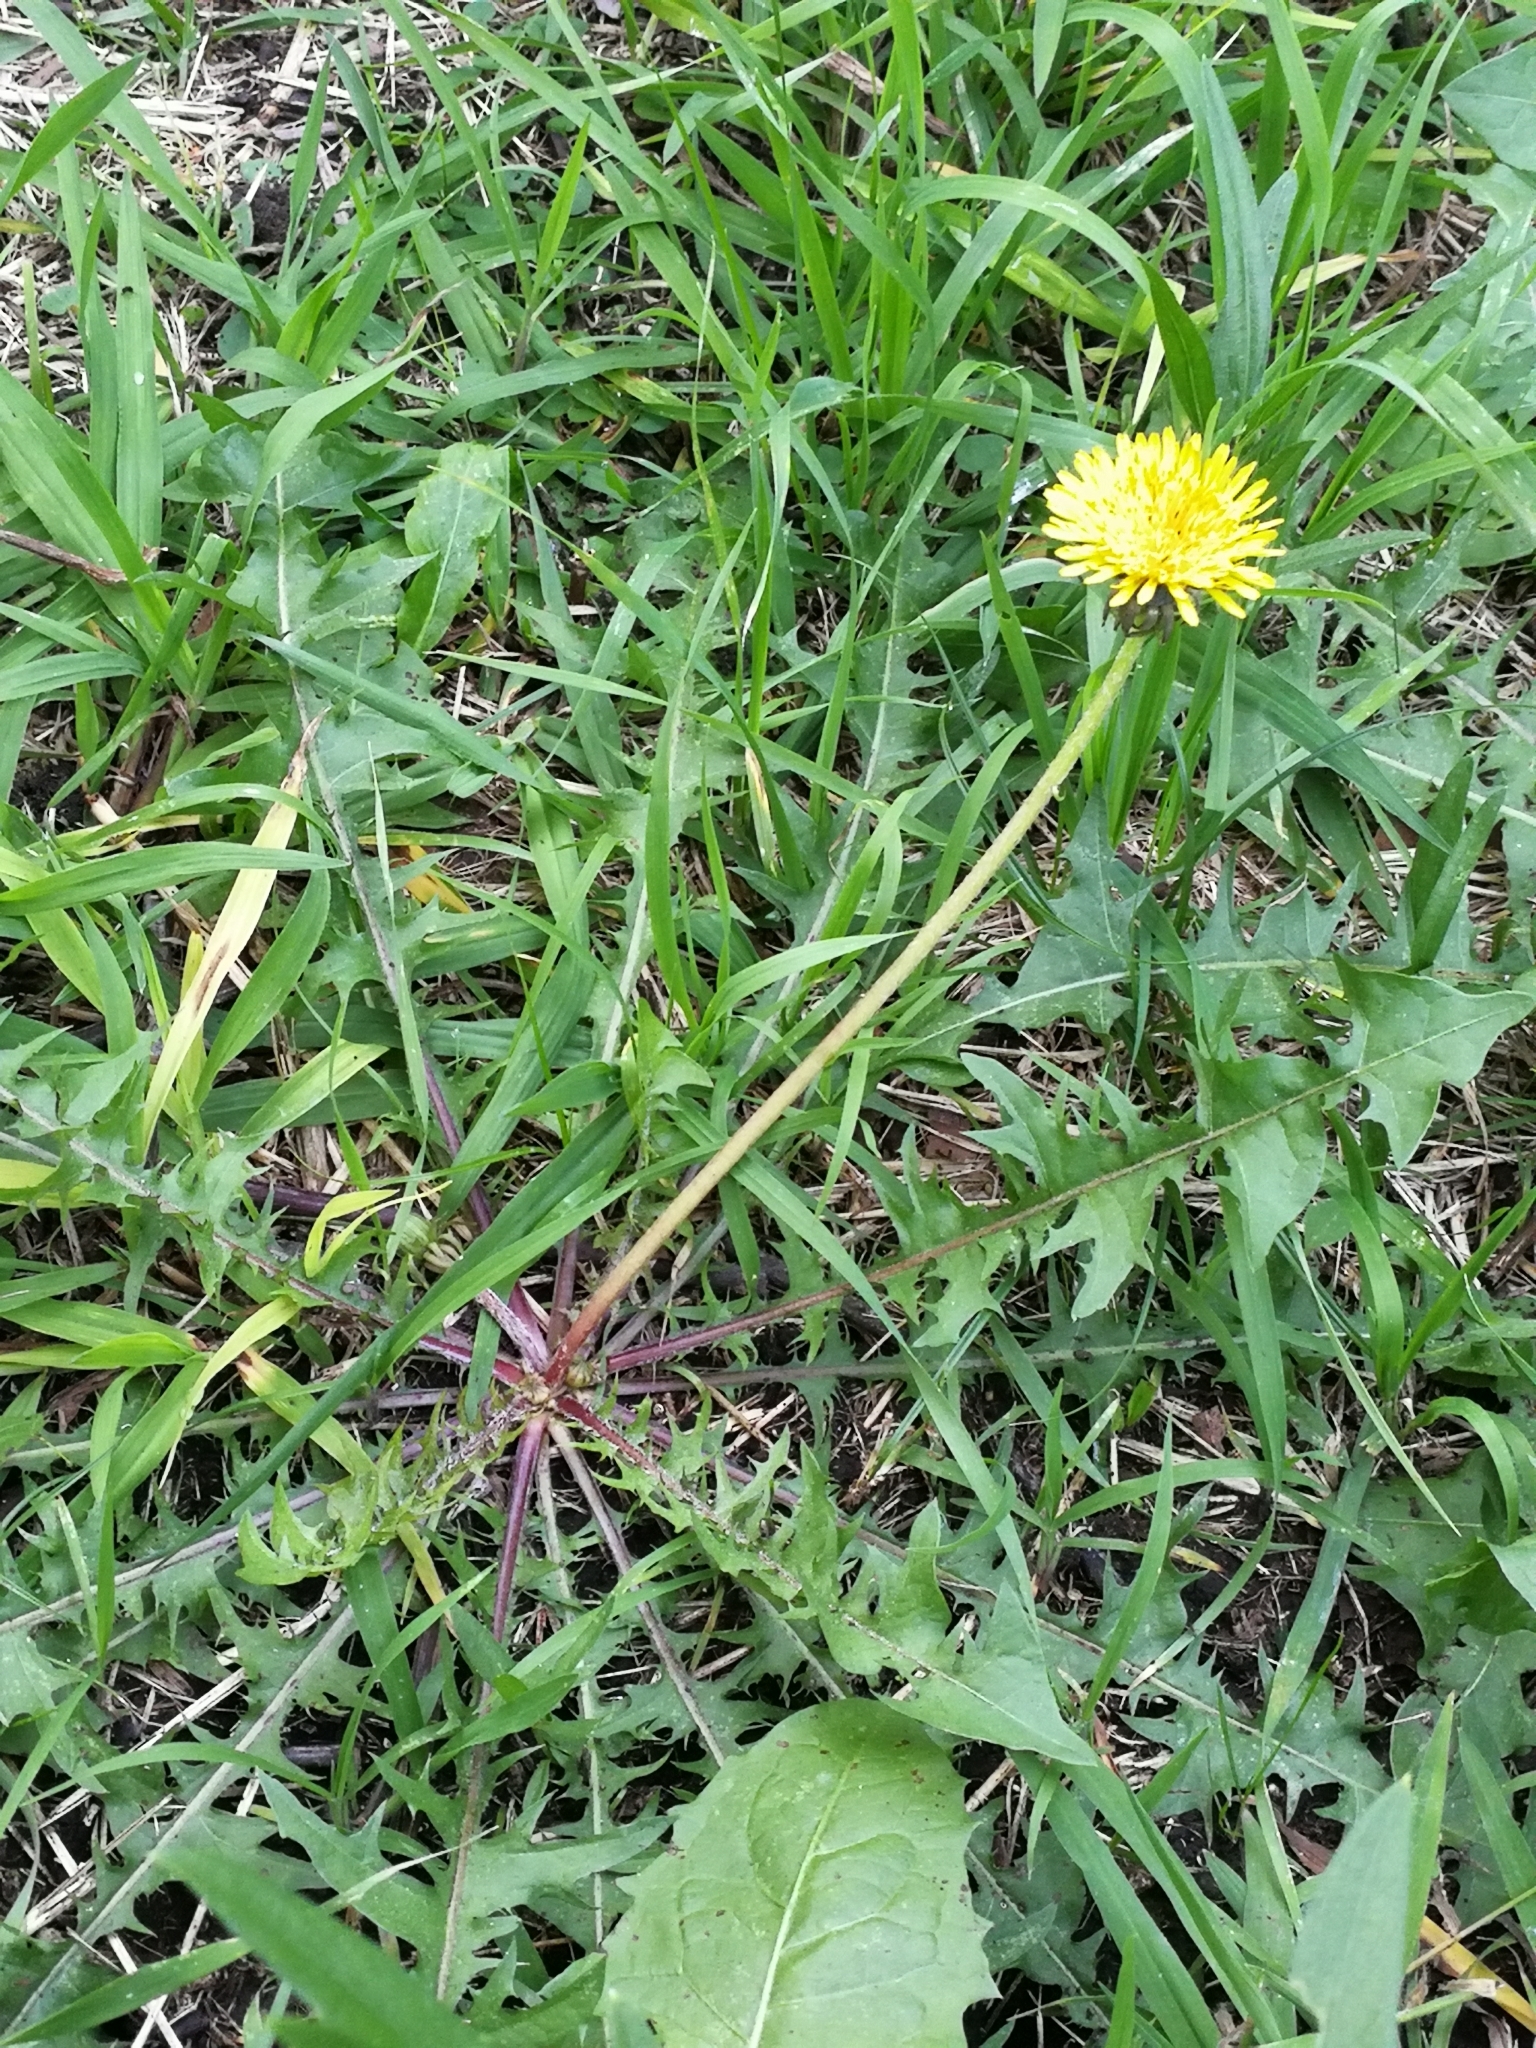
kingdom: Plantae
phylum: Tracheophyta
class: Magnoliopsida
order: Asterales
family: Asteraceae
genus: Taraxacum
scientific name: Taraxacum officinale
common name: Common dandelion
